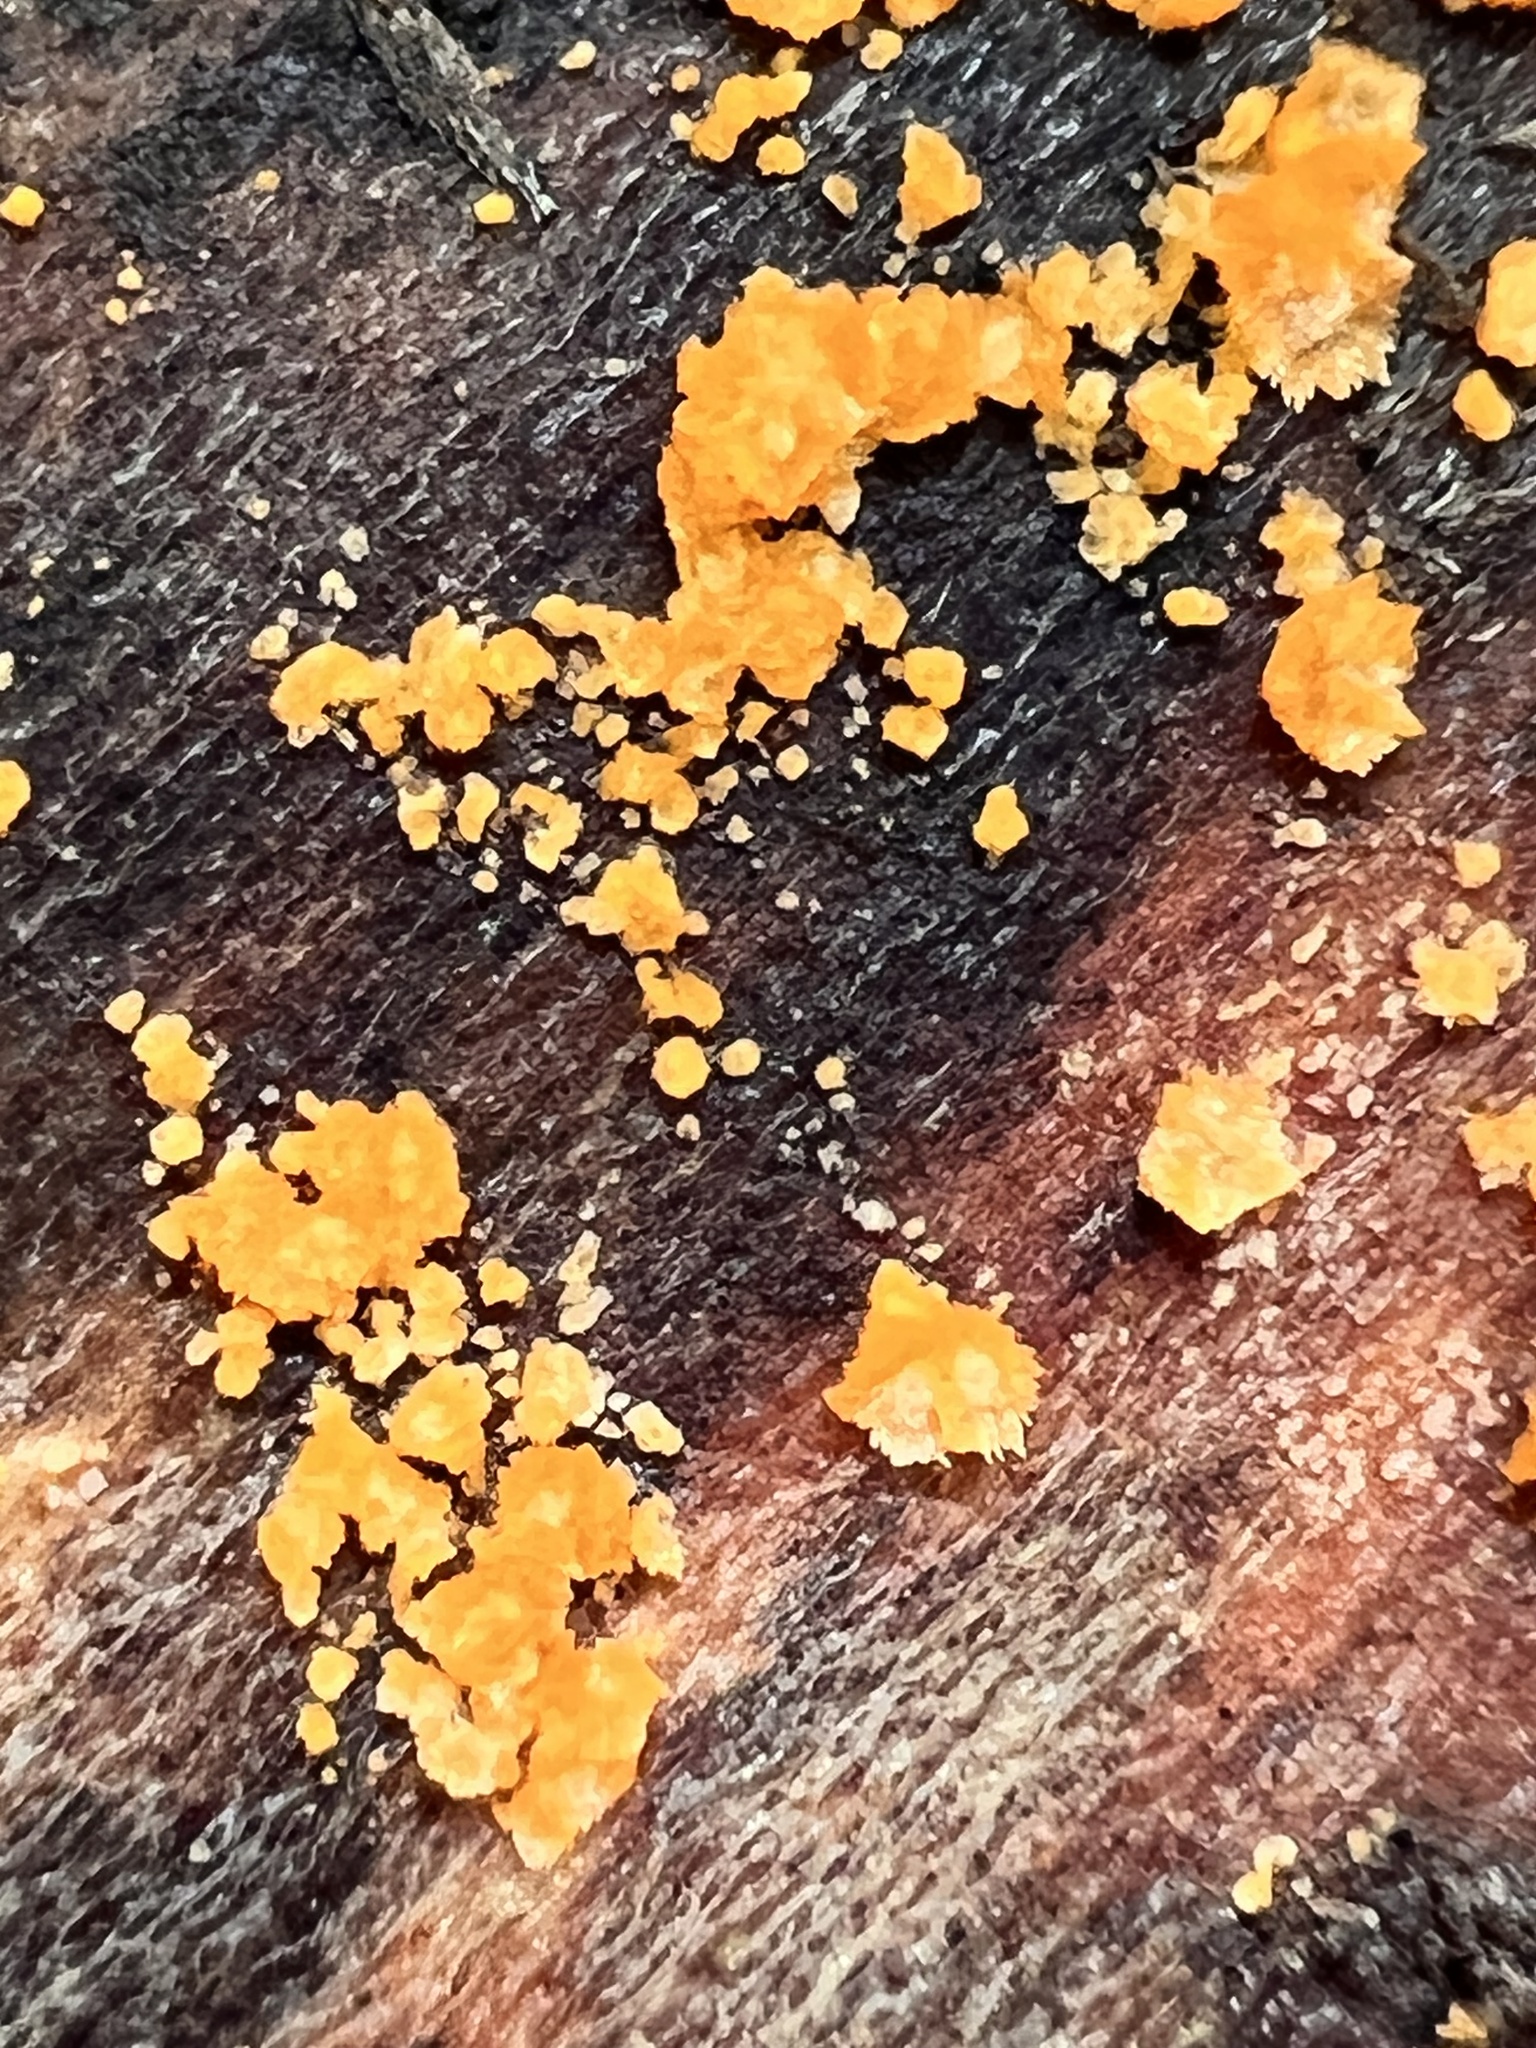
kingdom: Fungi
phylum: Basidiomycota
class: Agaricomycetes
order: Polyporales
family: Meruliaceae
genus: Phlebia
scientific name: Phlebia radiata
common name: Wrinkled crust
